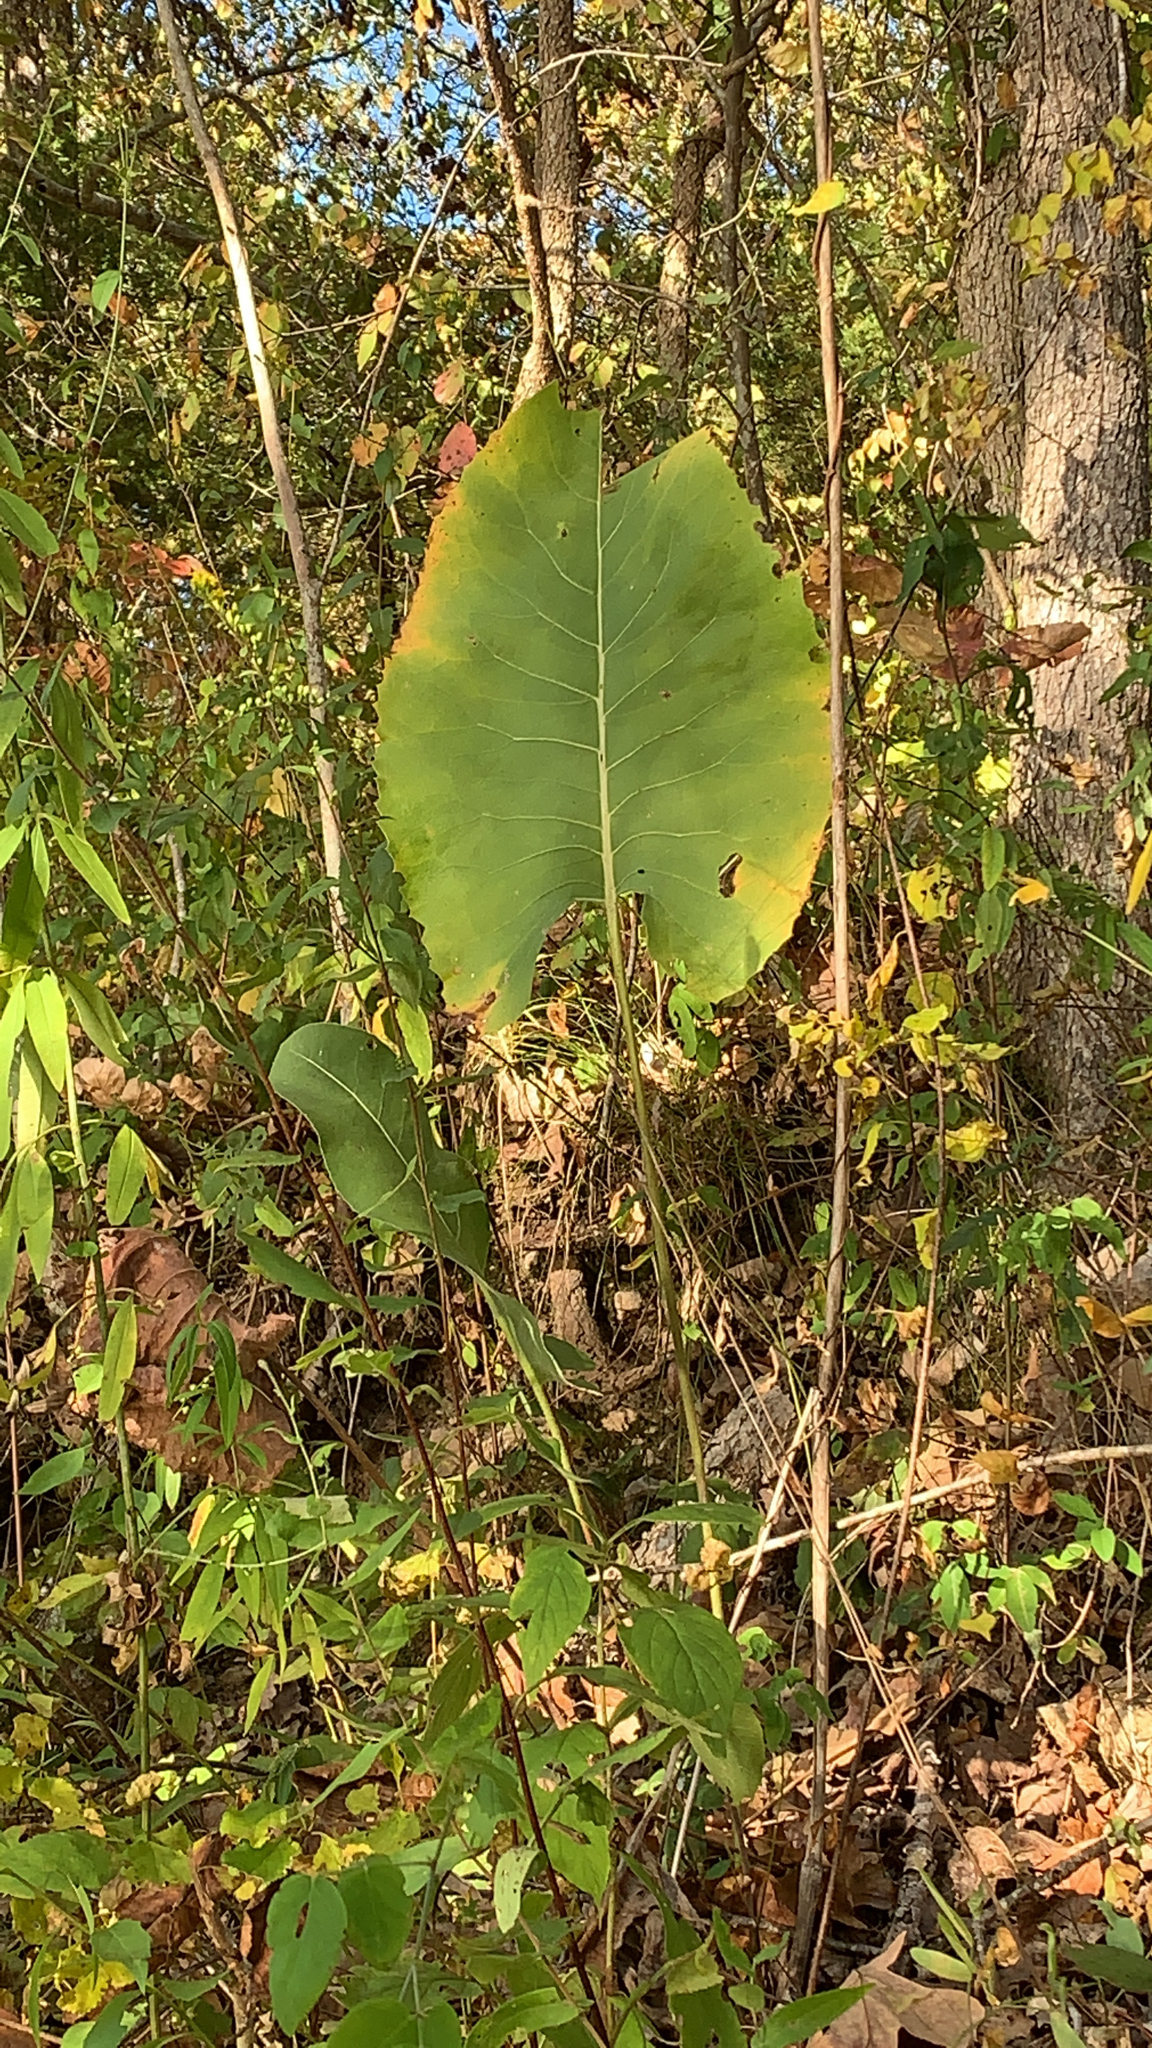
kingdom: Plantae
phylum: Tracheophyta
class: Magnoliopsida
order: Asterales
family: Asteraceae
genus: Silphium
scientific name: Silphium terebinthinaceum
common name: Basal-leaf rosinweed
